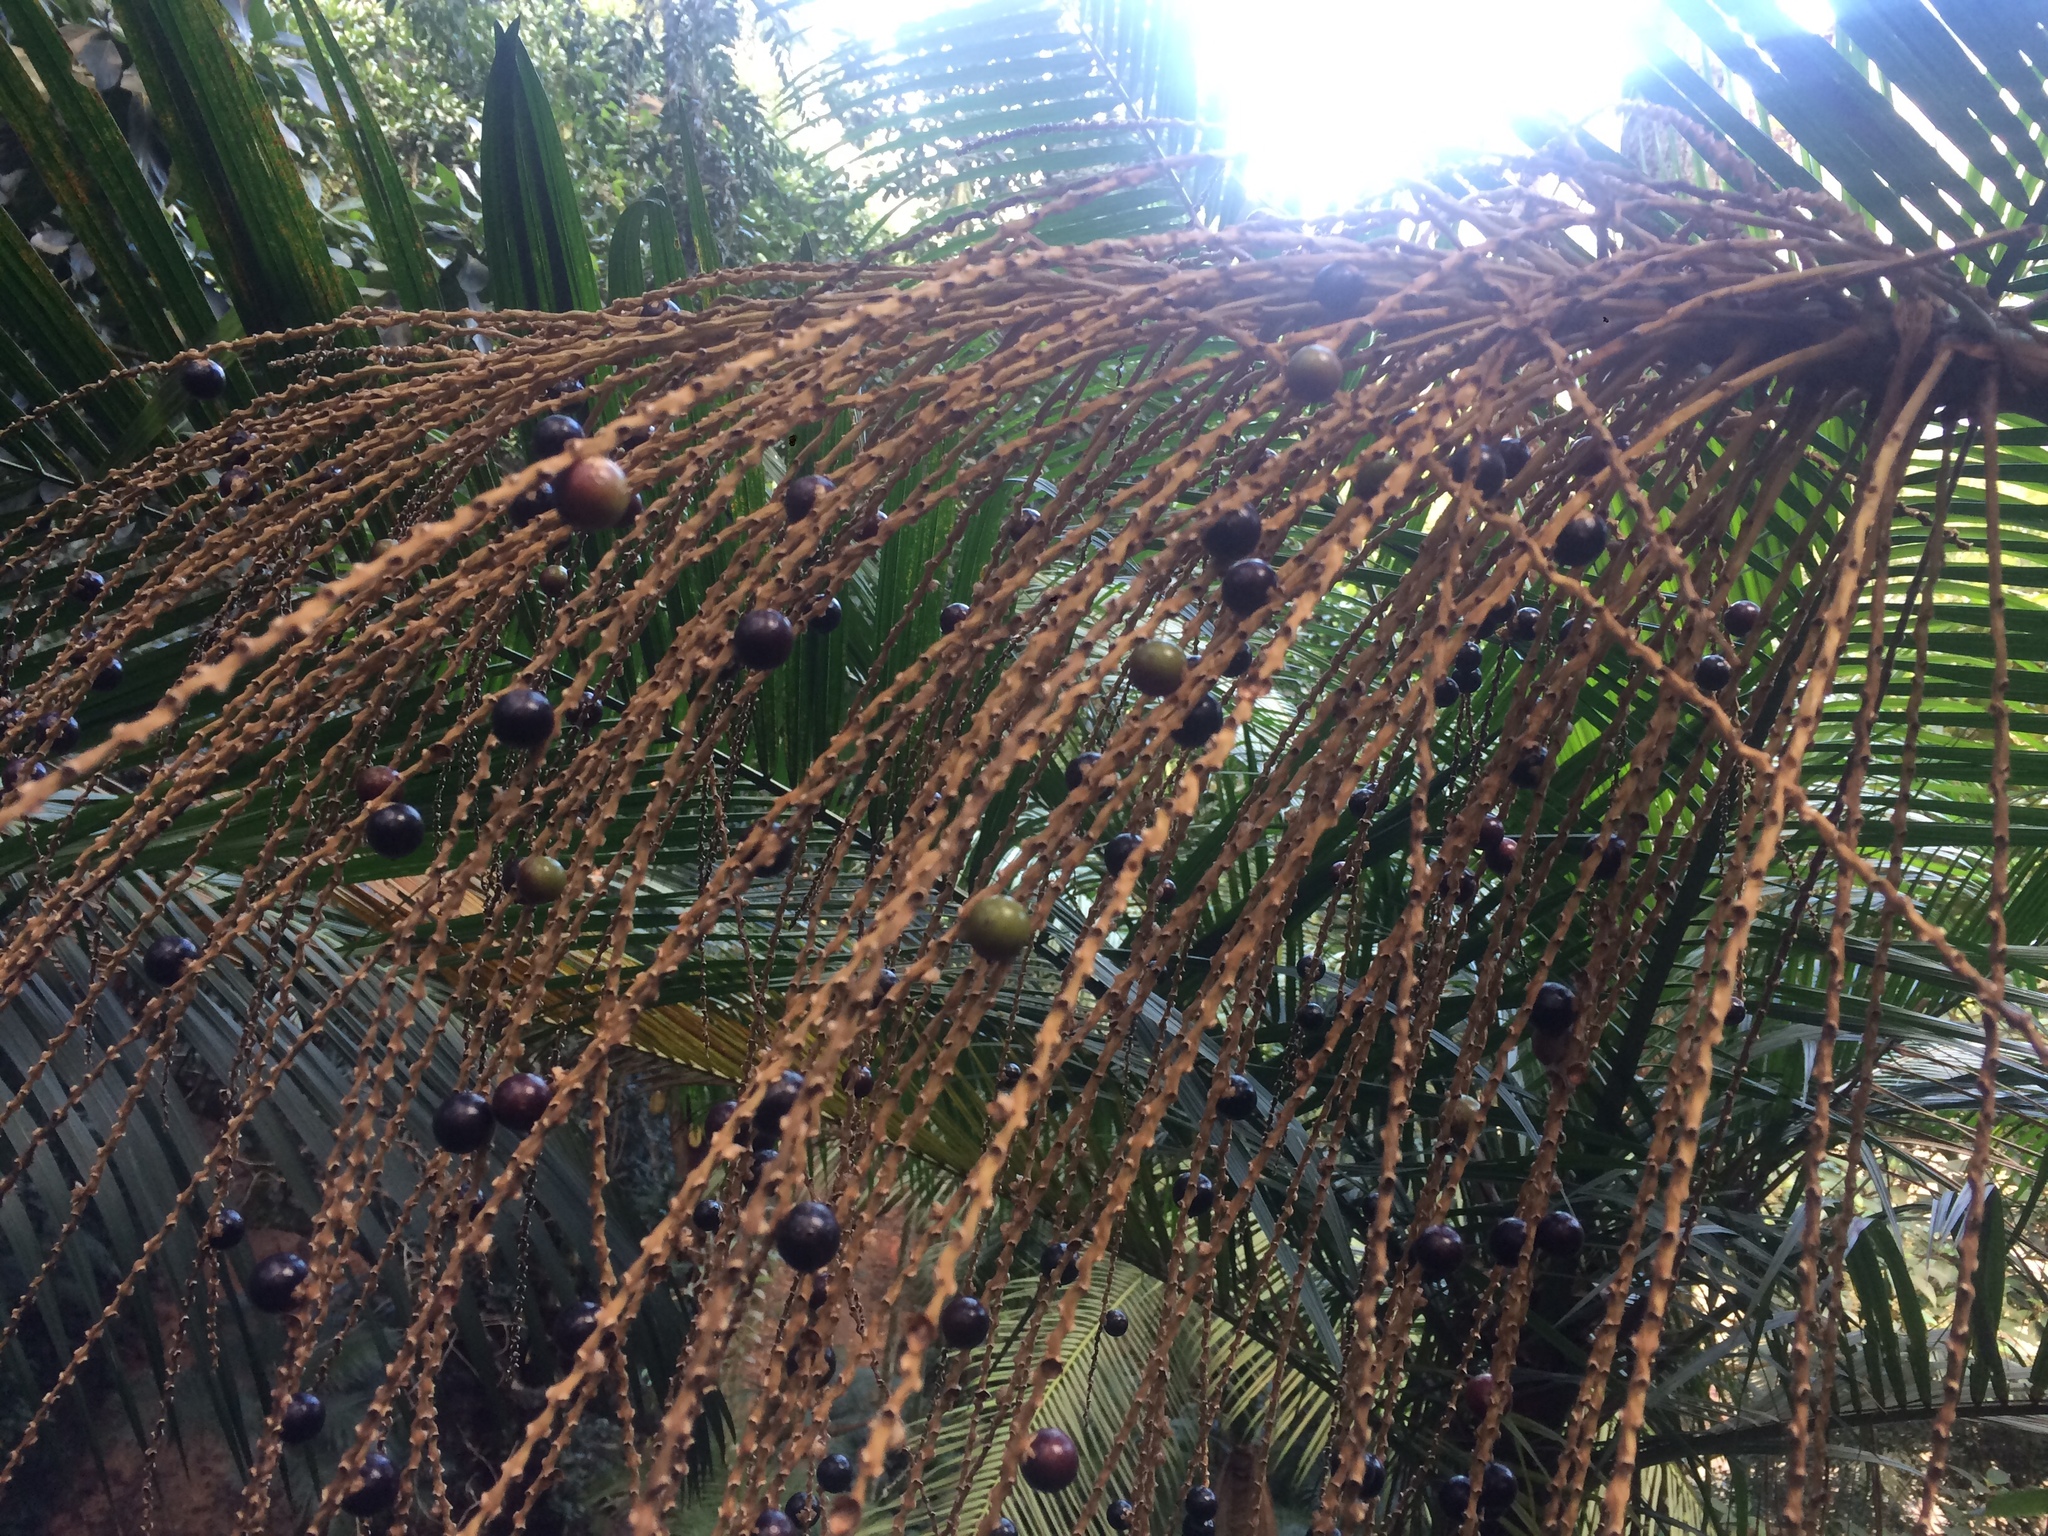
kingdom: Plantae
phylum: Tracheophyta
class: Liliopsida
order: Arecales
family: Arecaceae
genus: Euterpe
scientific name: Euterpe edulis
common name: Assai palm
